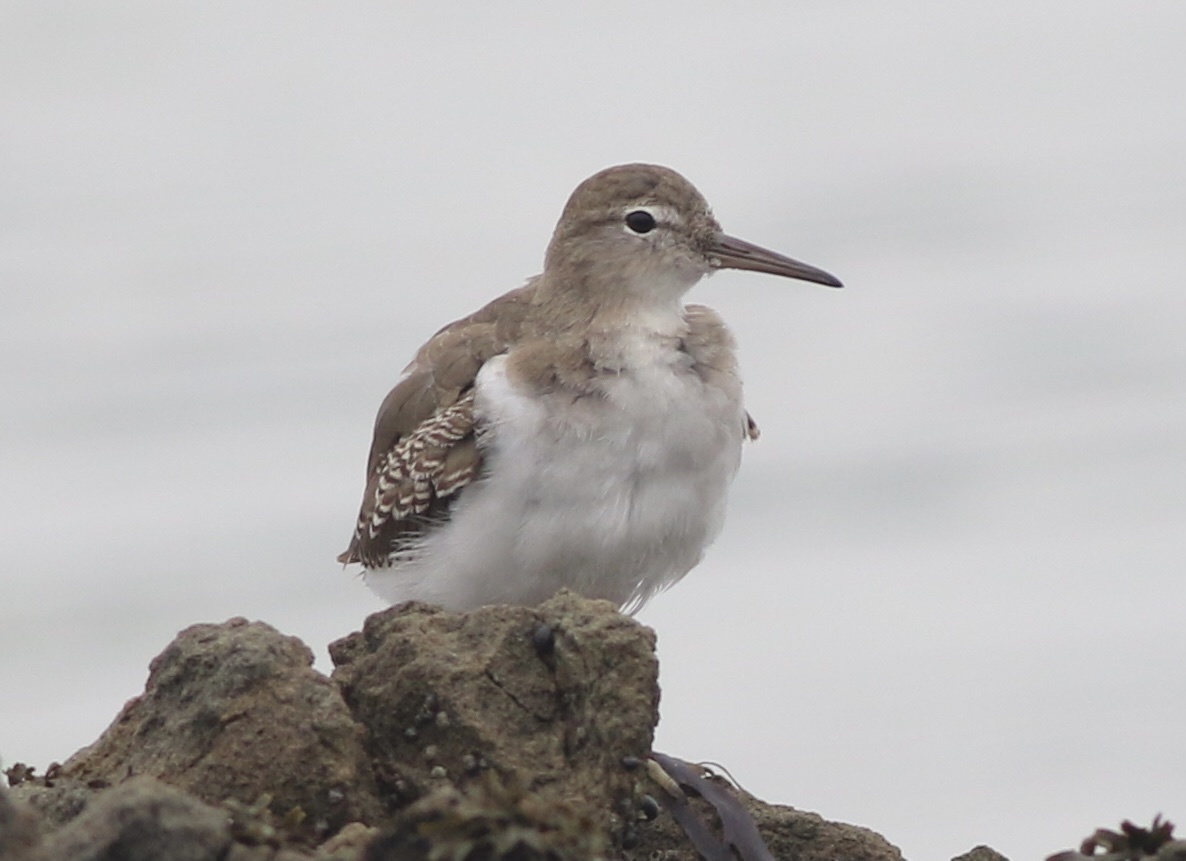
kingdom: Animalia
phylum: Chordata
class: Aves
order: Charadriiformes
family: Scolopacidae
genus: Actitis
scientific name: Actitis macularius
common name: Spotted sandpiper
